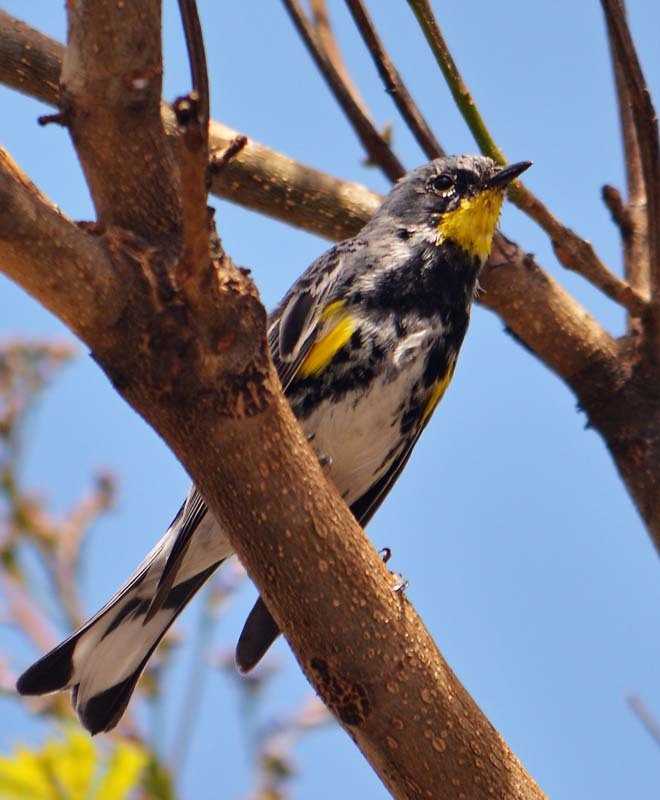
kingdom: Animalia
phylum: Chordata
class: Aves
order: Passeriformes
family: Parulidae
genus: Setophaga
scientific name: Setophaga auduboni
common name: Audubon's warbler
